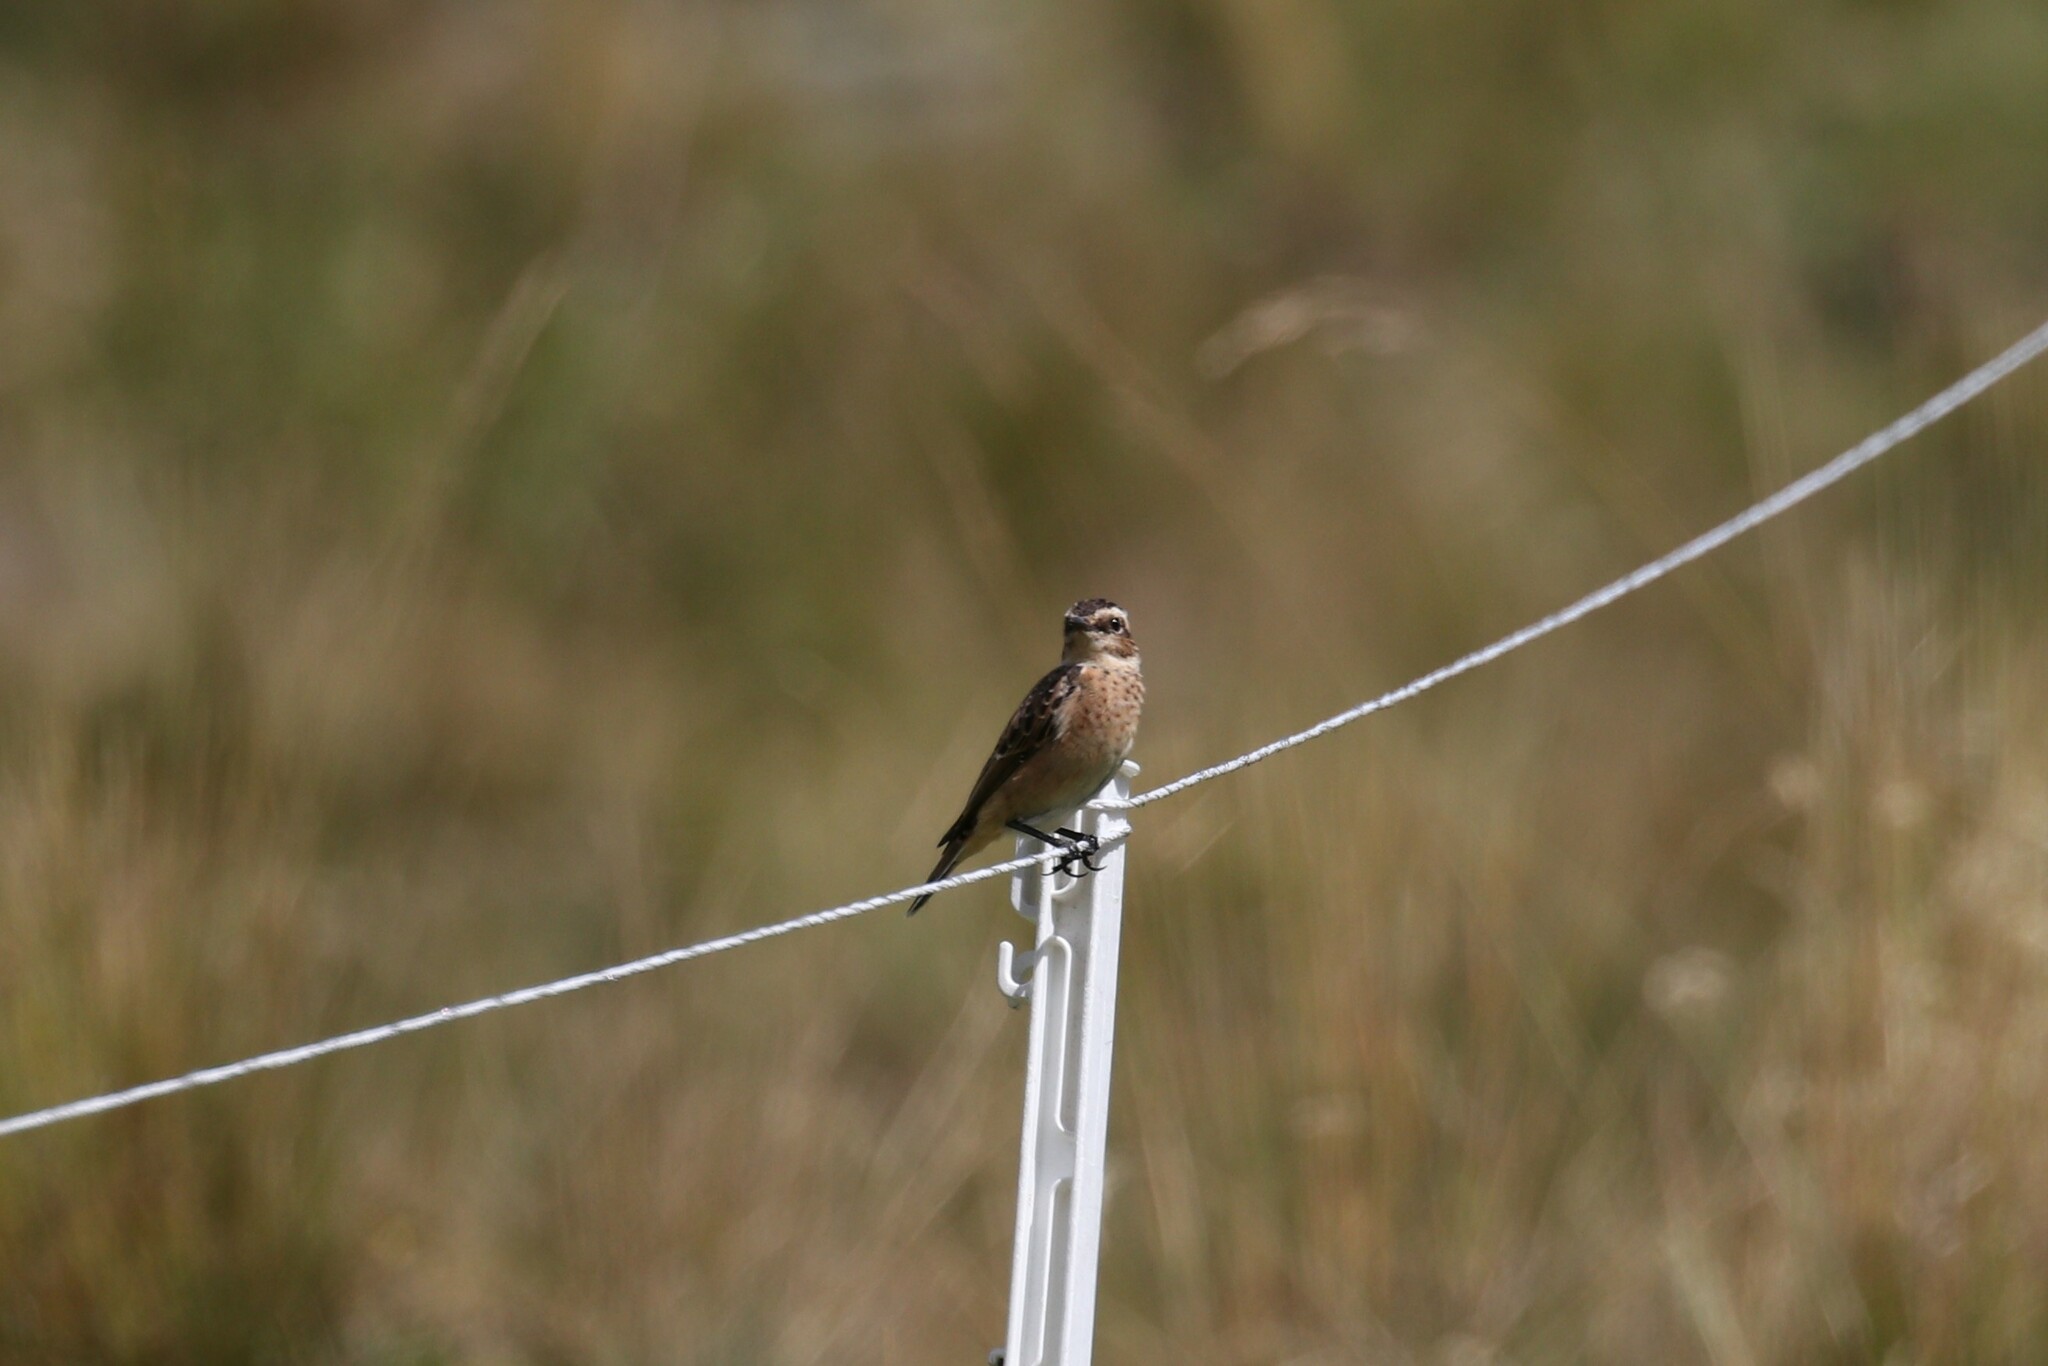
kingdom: Animalia
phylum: Chordata
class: Aves
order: Passeriformes
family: Muscicapidae
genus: Saxicola
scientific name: Saxicola rubetra
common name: Whinchat
